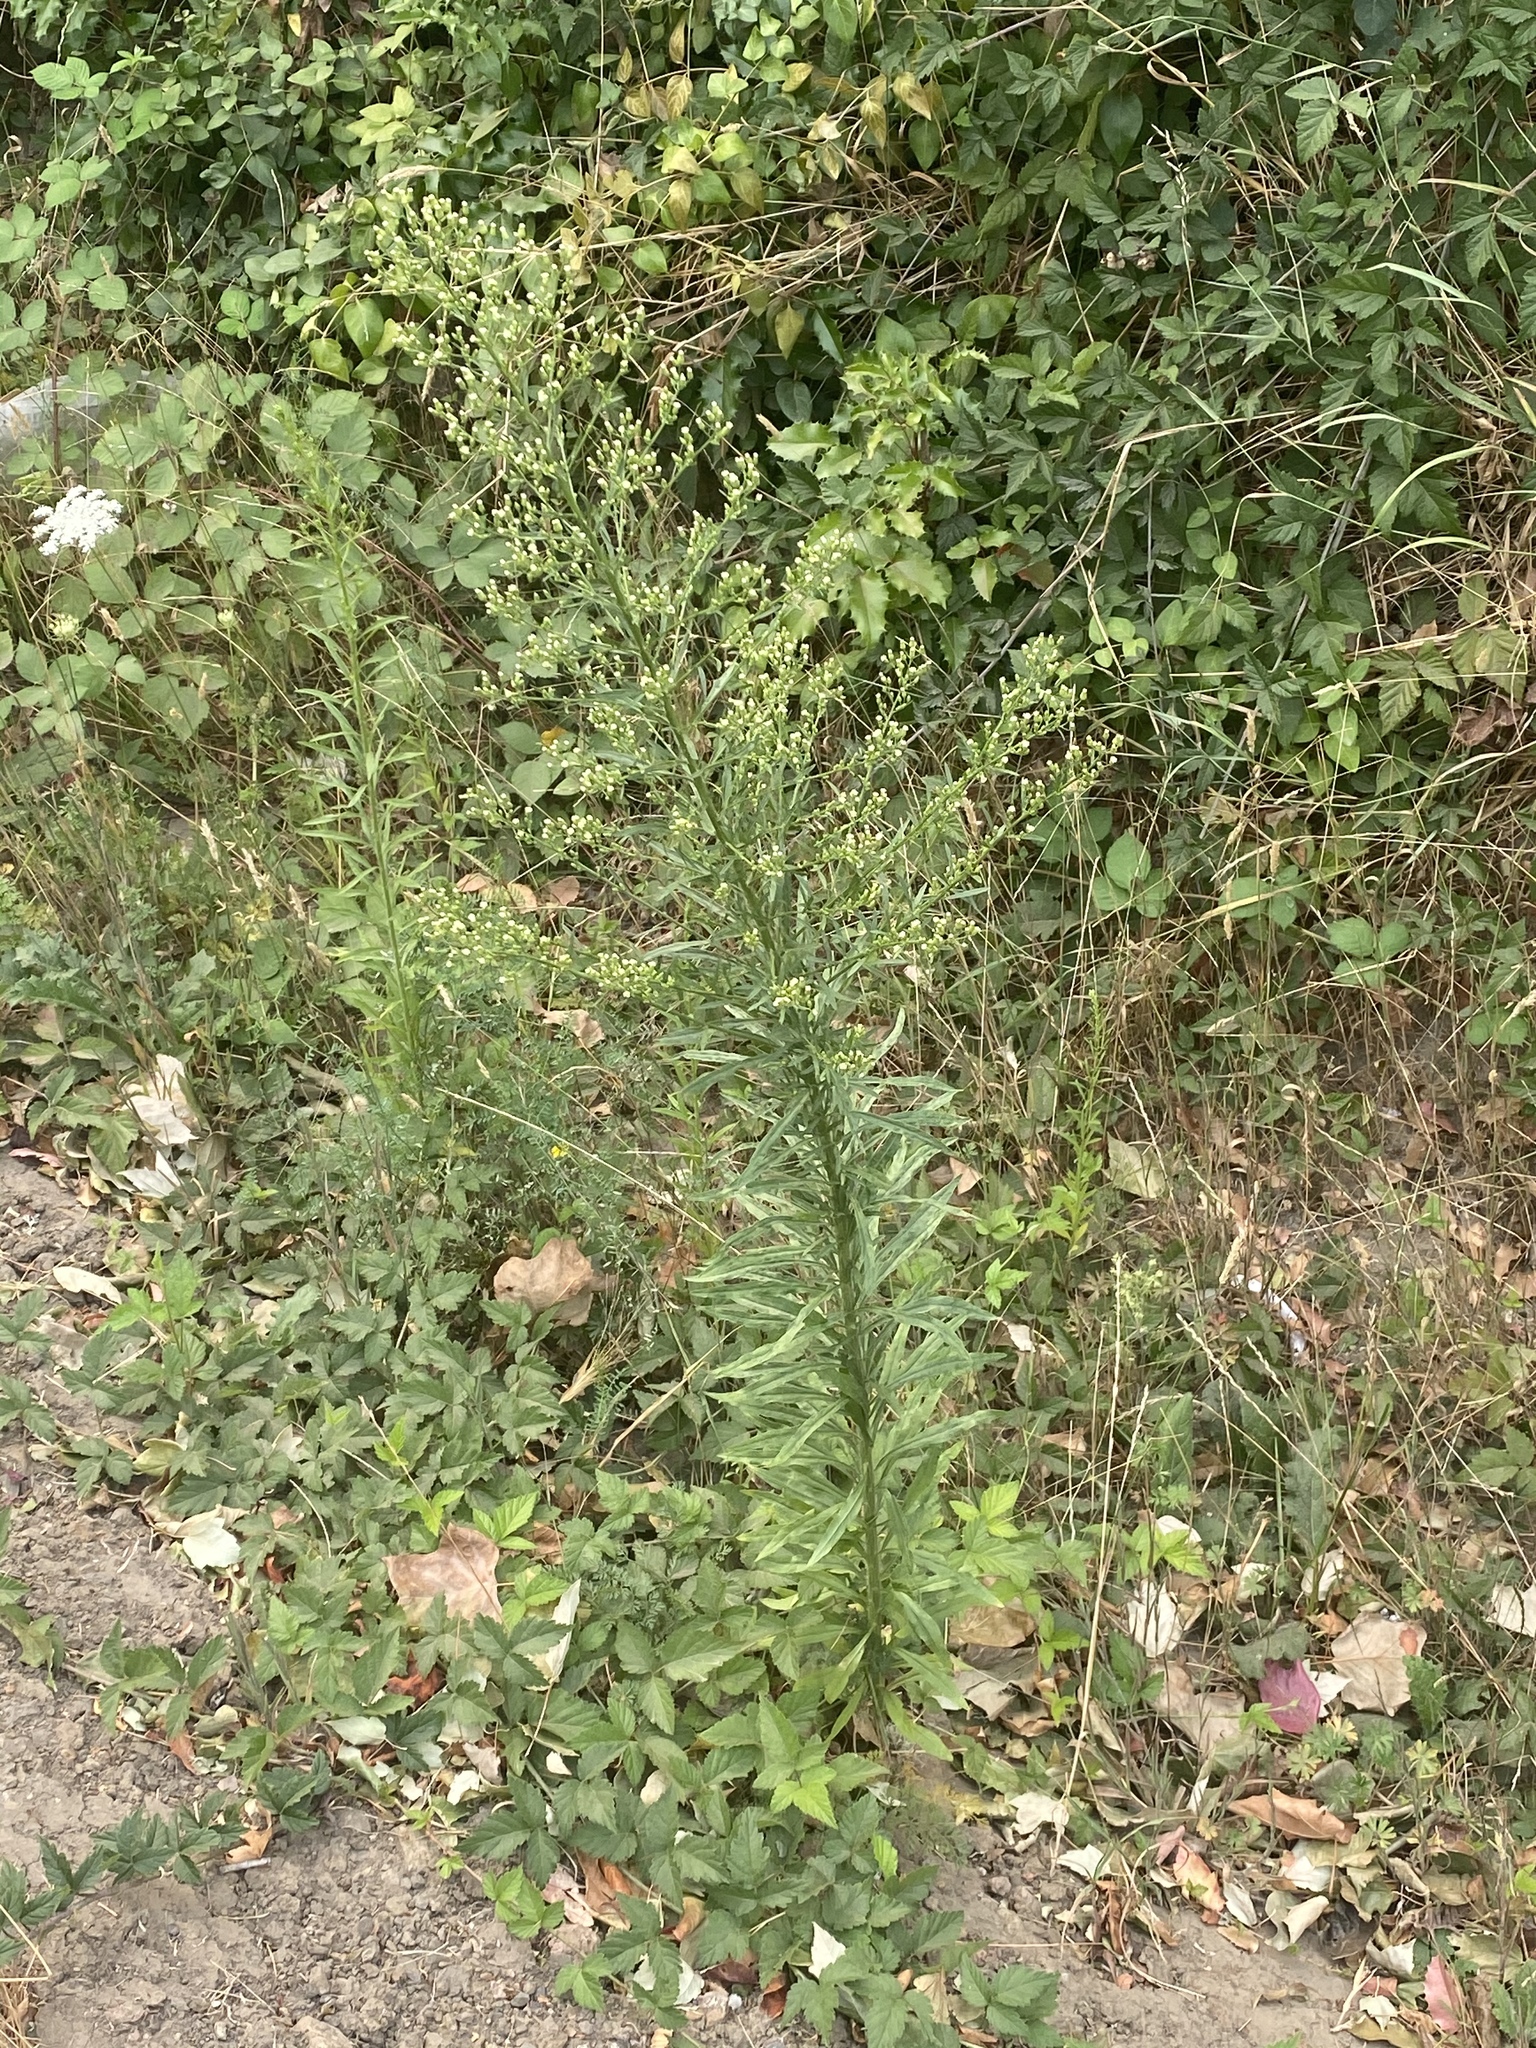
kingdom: Plantae
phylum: Tracheophyta
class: Magnoliopsida
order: Asterales
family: Asteraceae
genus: Erigeron
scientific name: Erigeron canadensis
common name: Canadian fleabane
